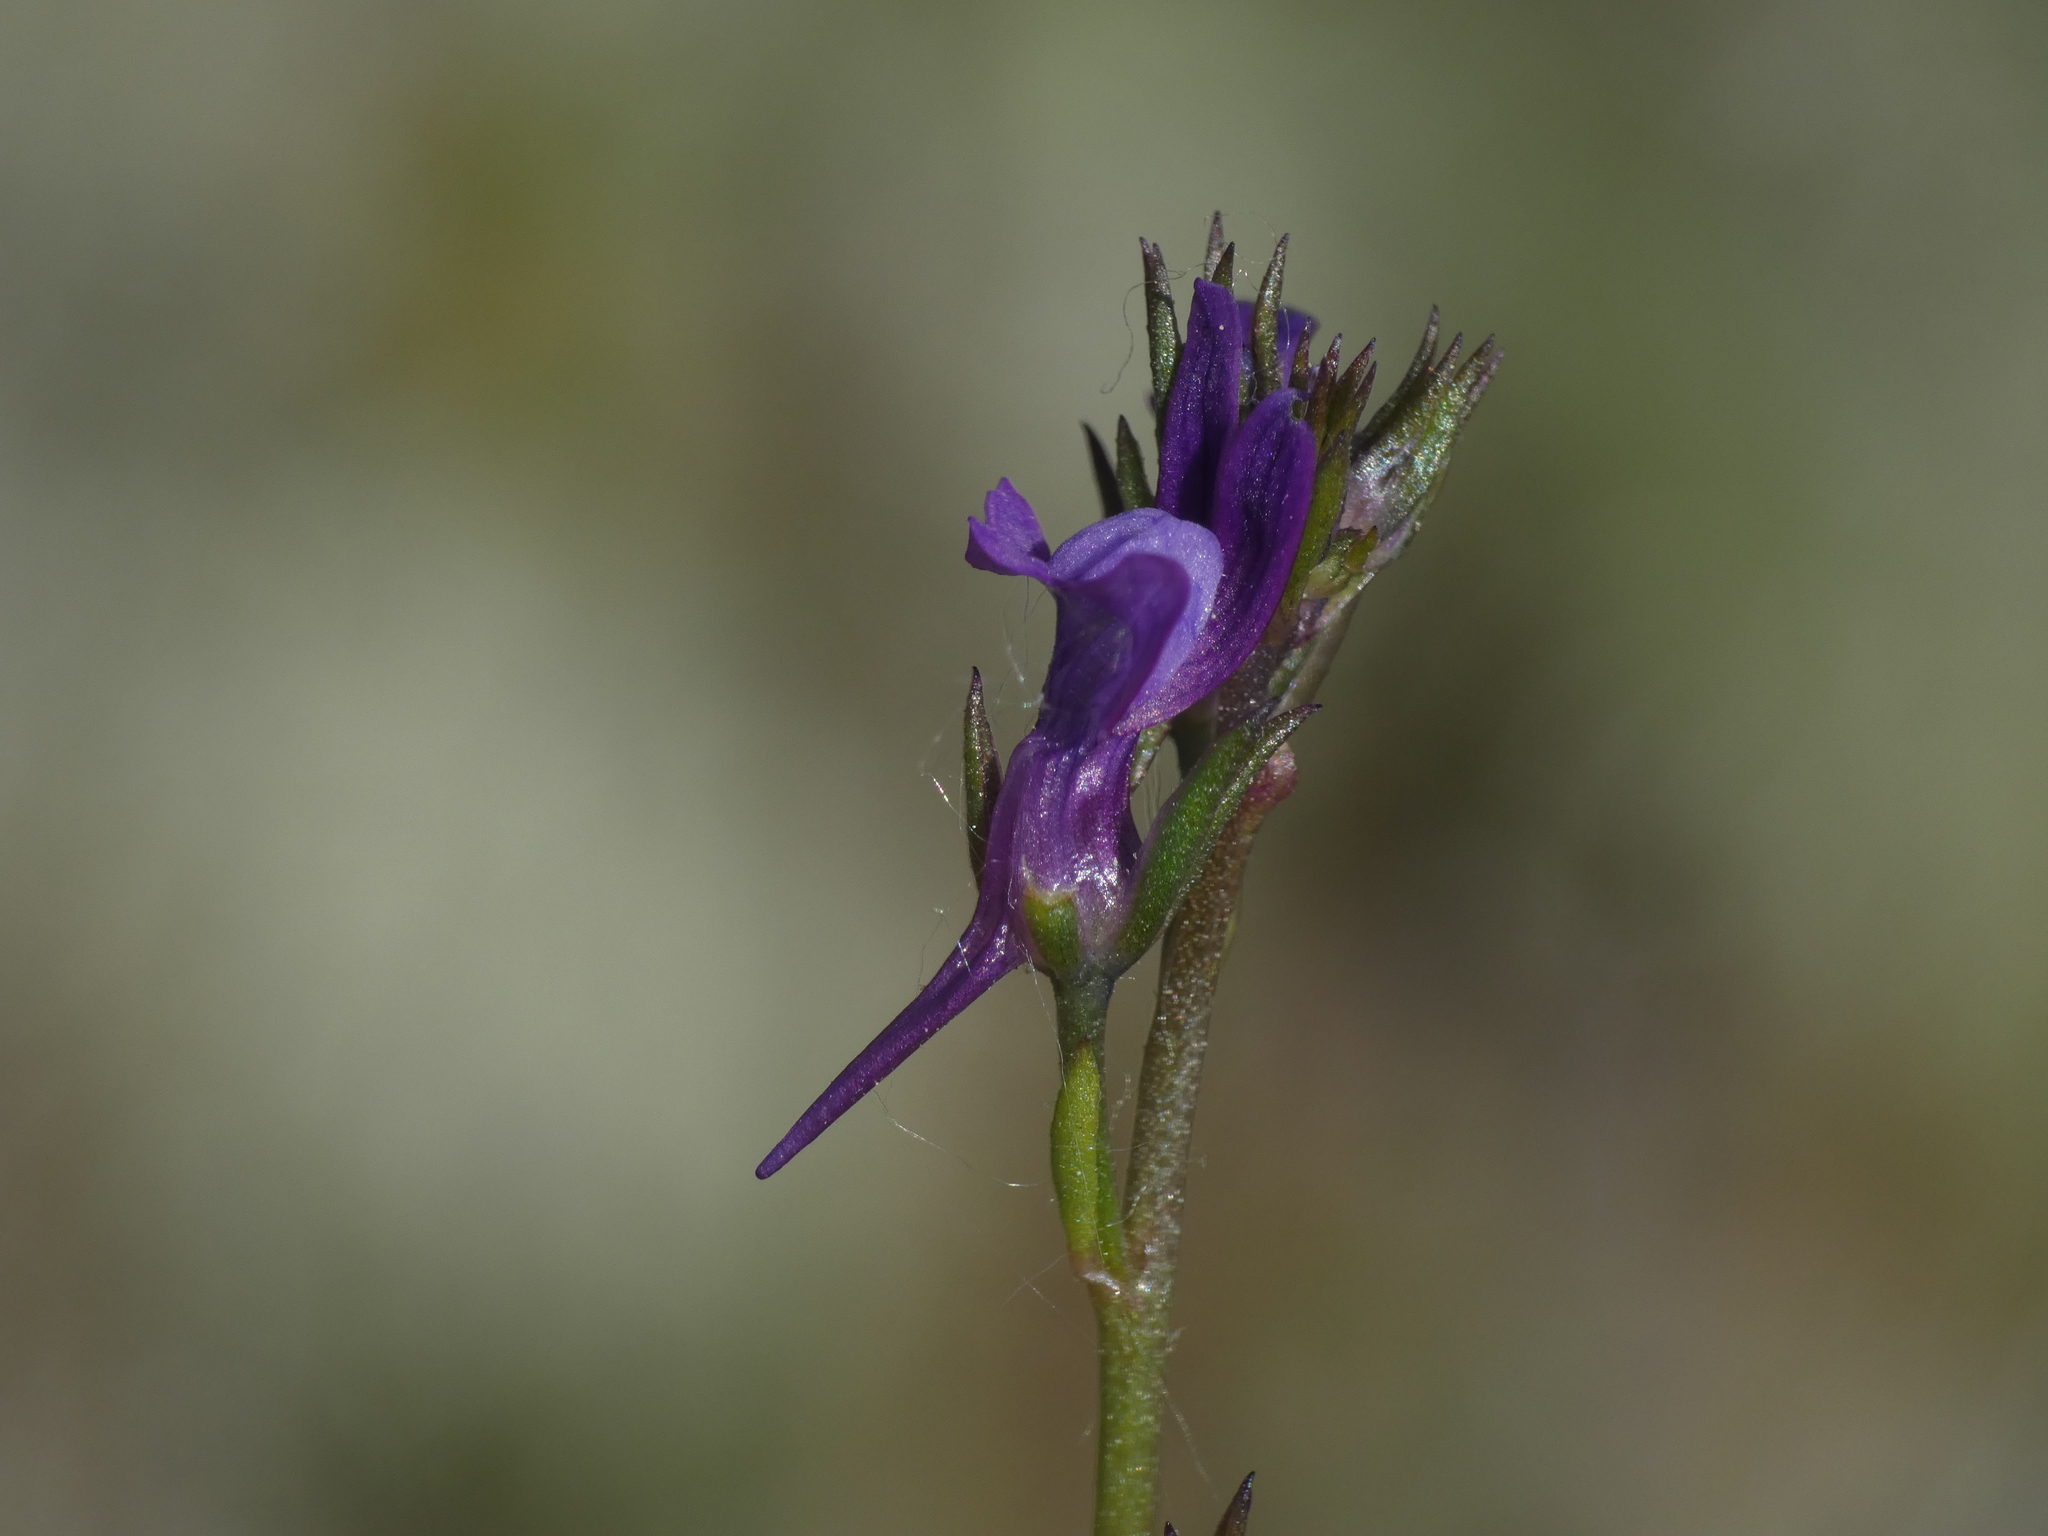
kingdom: Plantae
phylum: Tracheophyta
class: Magnoliopsida
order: Lamiales
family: Plantaginaceae
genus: Linaria
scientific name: Linaria pelisseriana
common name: Jersey toadflax
